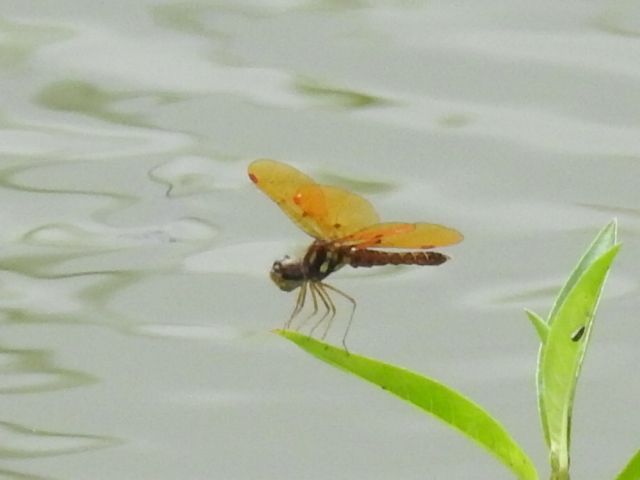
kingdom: Animalia
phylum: Arthropoda
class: Insecta
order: Odonata
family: Libellulidae
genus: Perithemis
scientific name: Perithemis tenera
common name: Eastern amberwing
